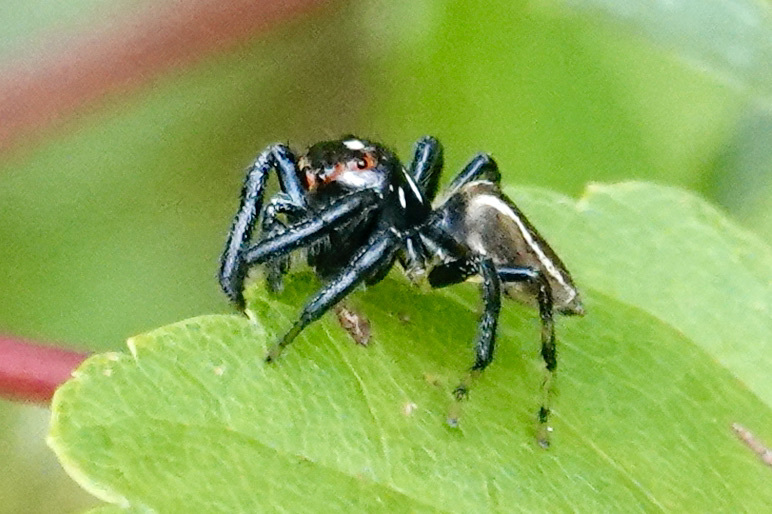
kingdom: Animalia
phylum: Arthropoda
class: Arachnida
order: Araneae
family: Salticidae
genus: Colonus
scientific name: Colonus sylvanus
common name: Jumping spiders
